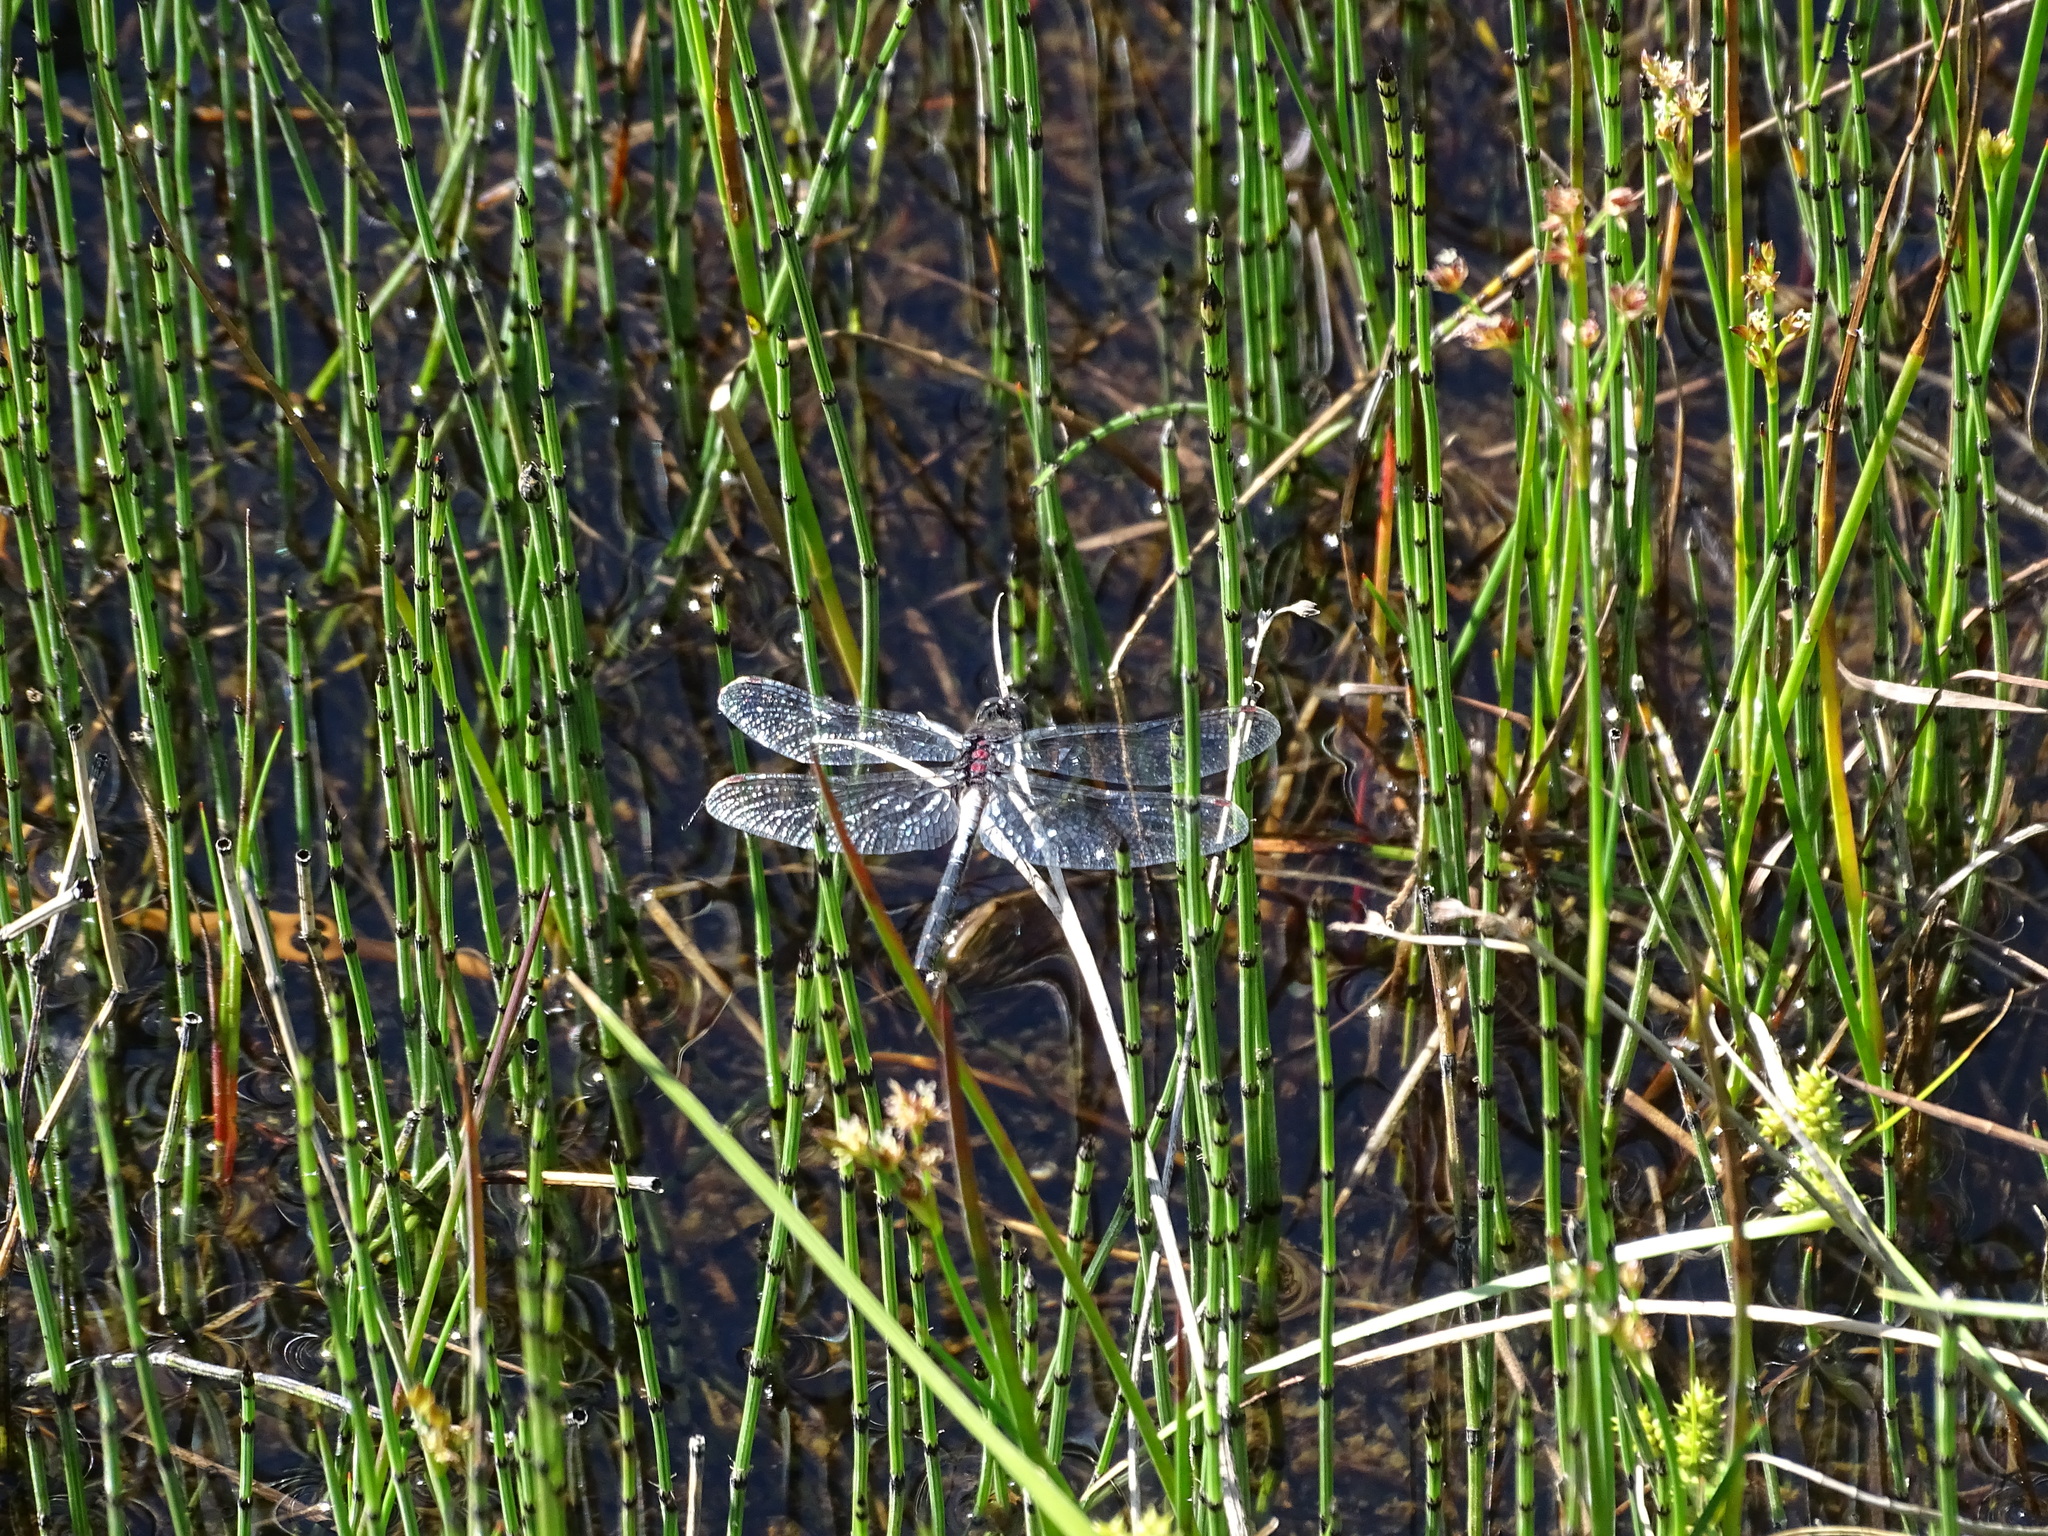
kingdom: Animalia
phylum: Arthropoda
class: Insecta
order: Odonata
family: Libellulidae
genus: Leucorrhinia
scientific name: Leucorrhinia proxima
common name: Belted whiteface
